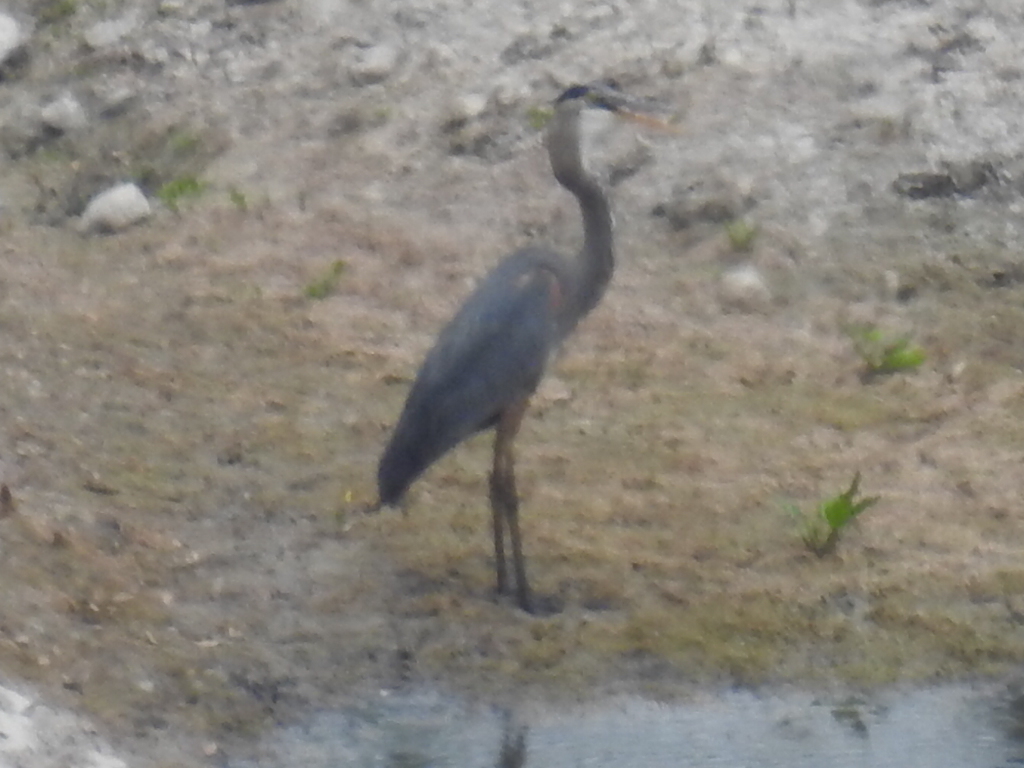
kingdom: Animalia
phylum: Chordata
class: Aves
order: Pelecaniformes
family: Ardeidae
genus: Ardea
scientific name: Ardea herodias
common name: Great blue heron
